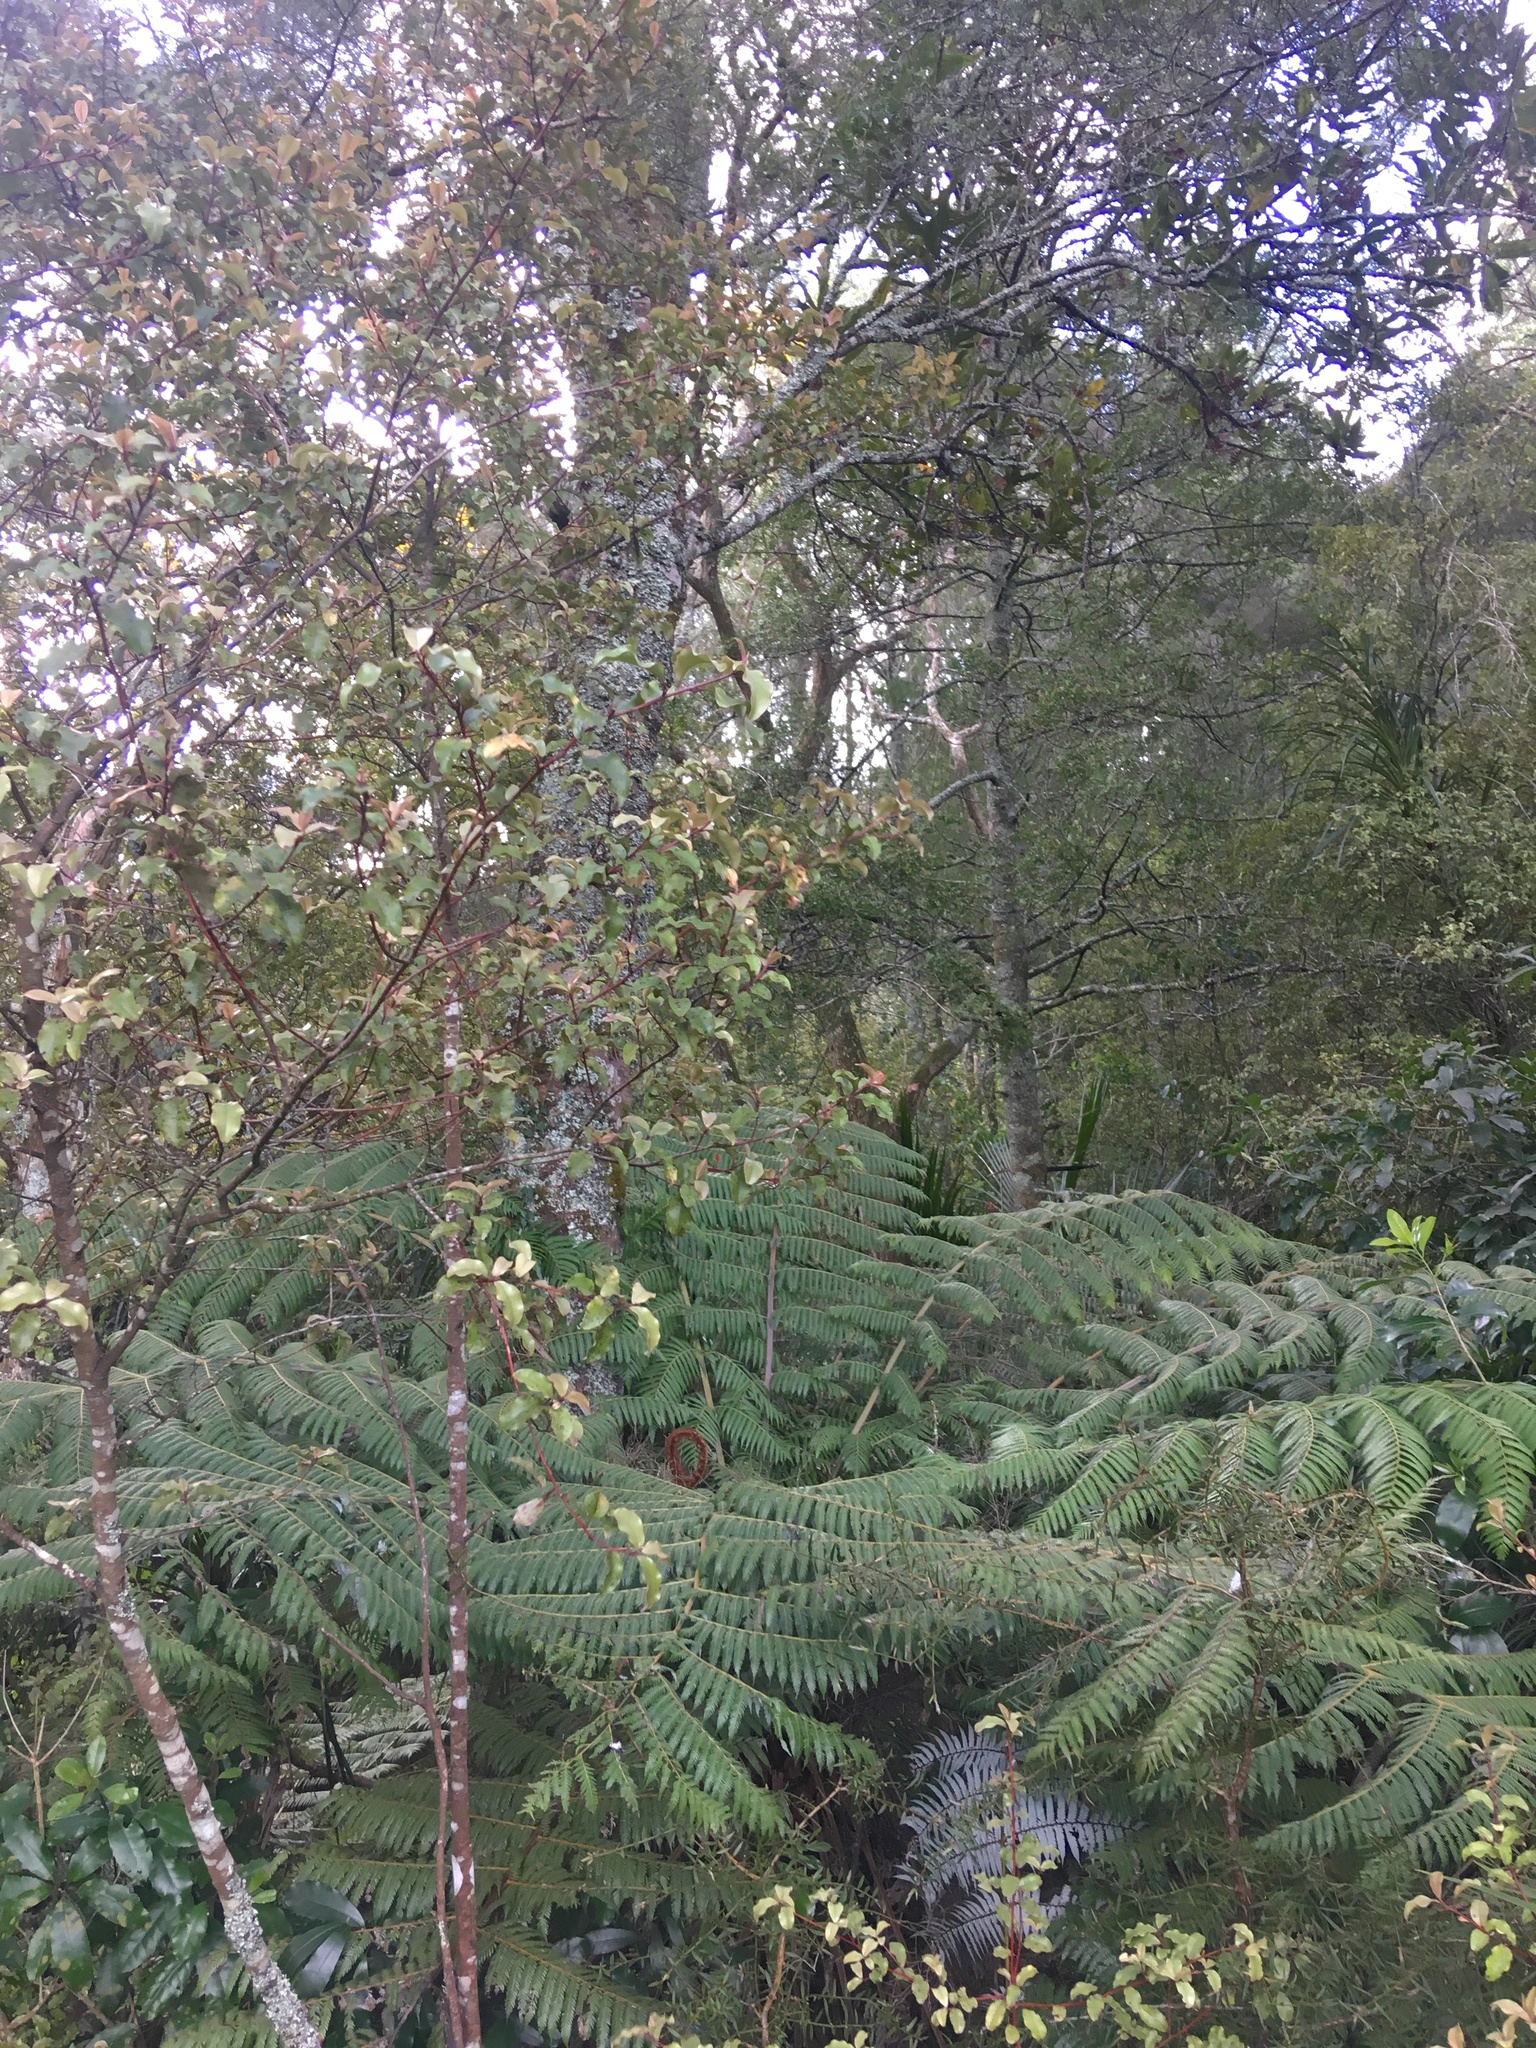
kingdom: Plantae
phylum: Tracheophyta
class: Polypodiopsida
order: Cyatheales
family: Cyatheaceae
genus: Alsophila
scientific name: Alsophila dealbata
